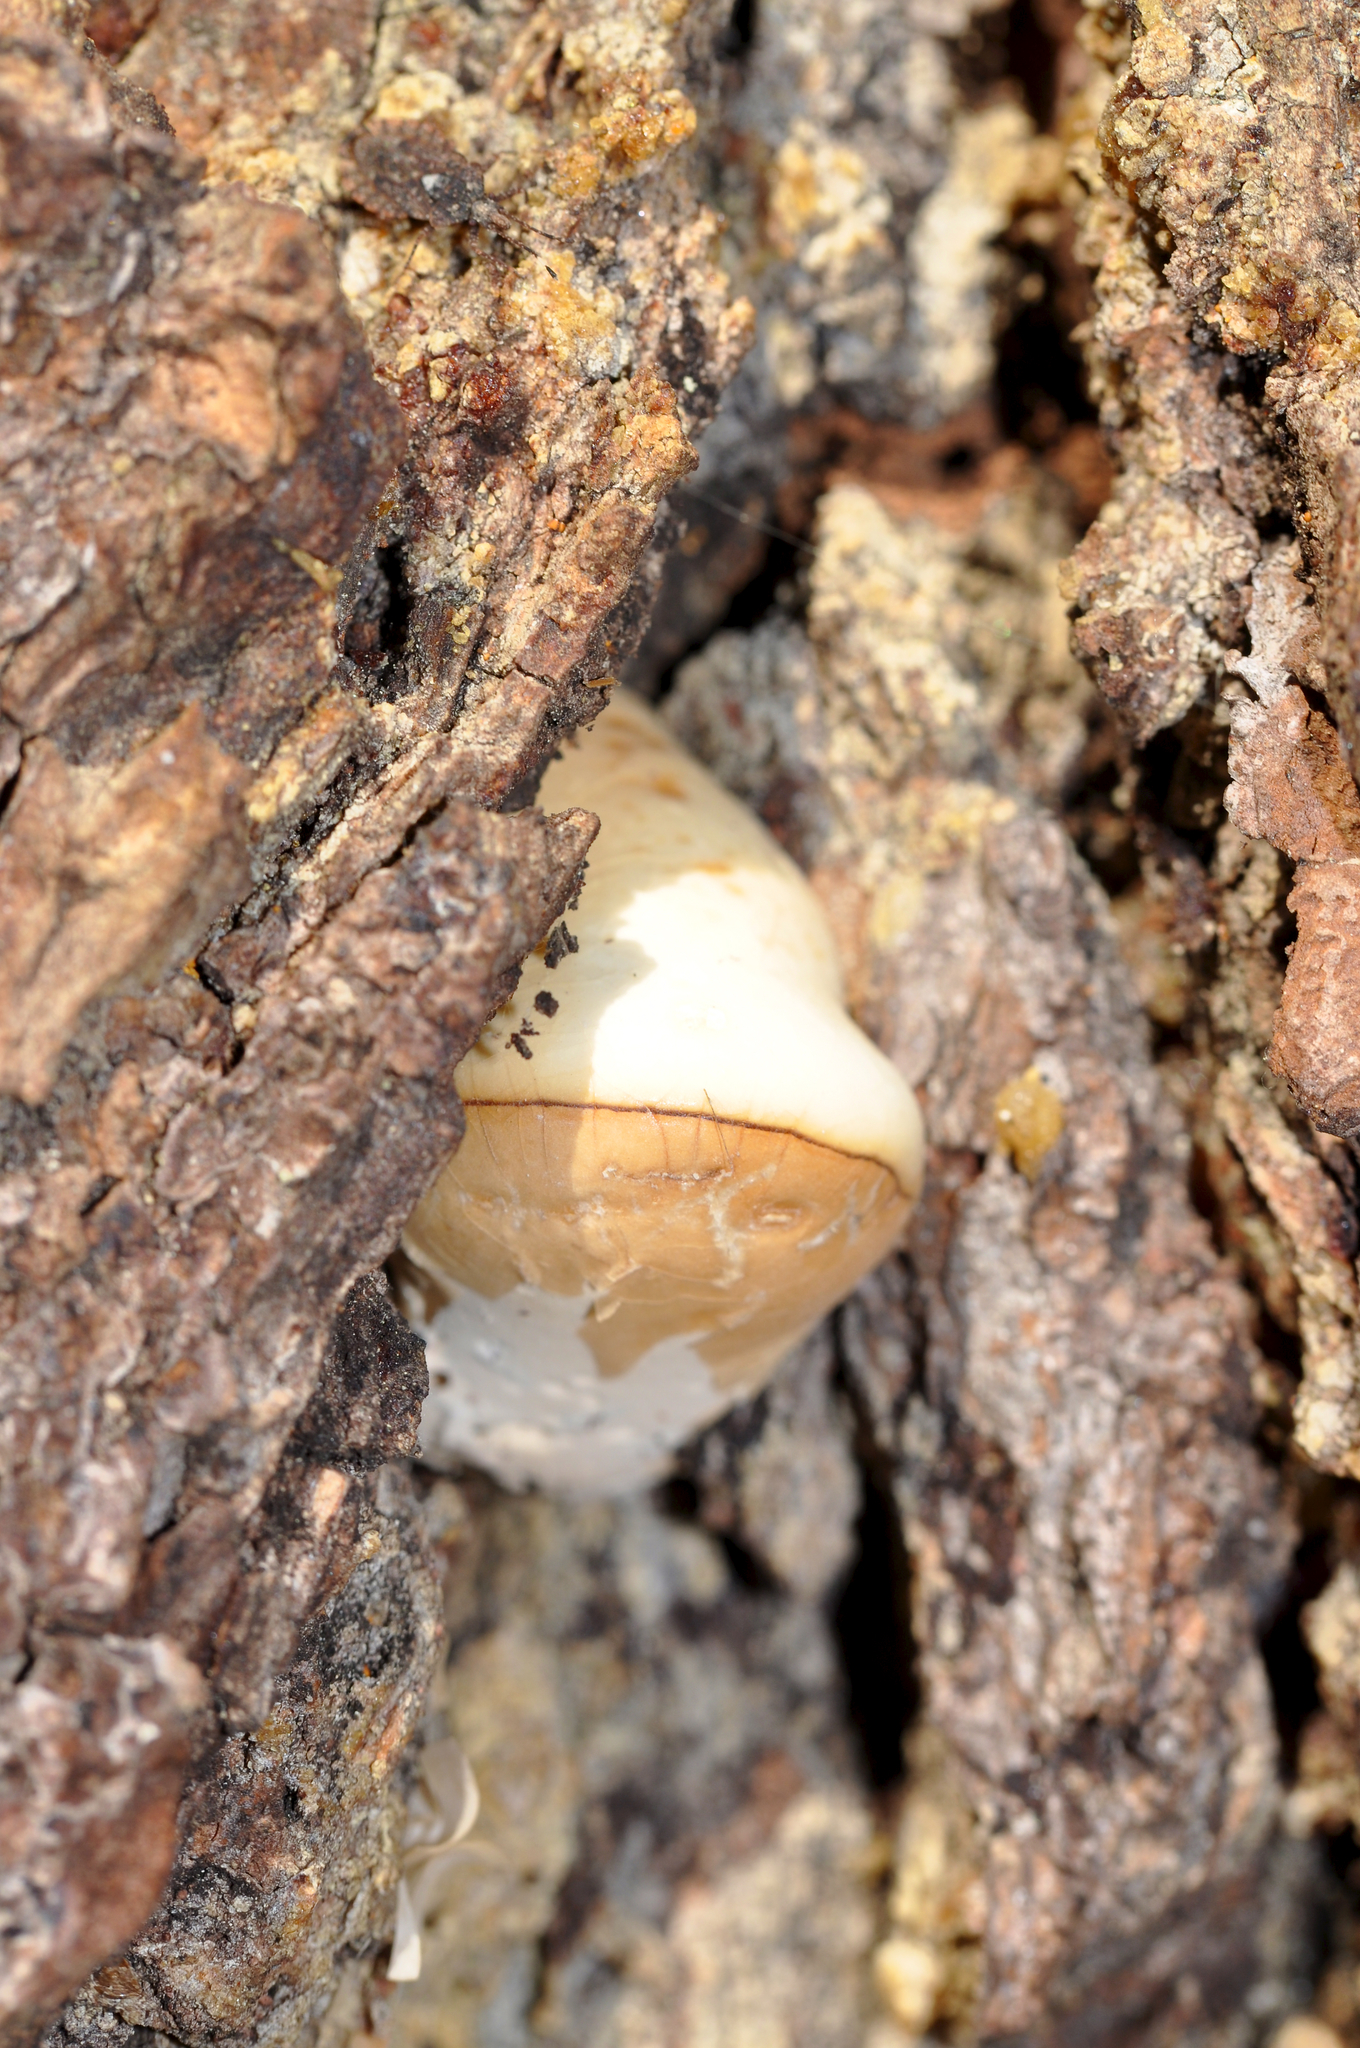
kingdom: Fungi
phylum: Basidiomycota
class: Agaricomycetes
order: Polyporales
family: Polyporaceae
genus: Cryptoporus
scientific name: Cryptoporus volvatus
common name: Veiled polypore
